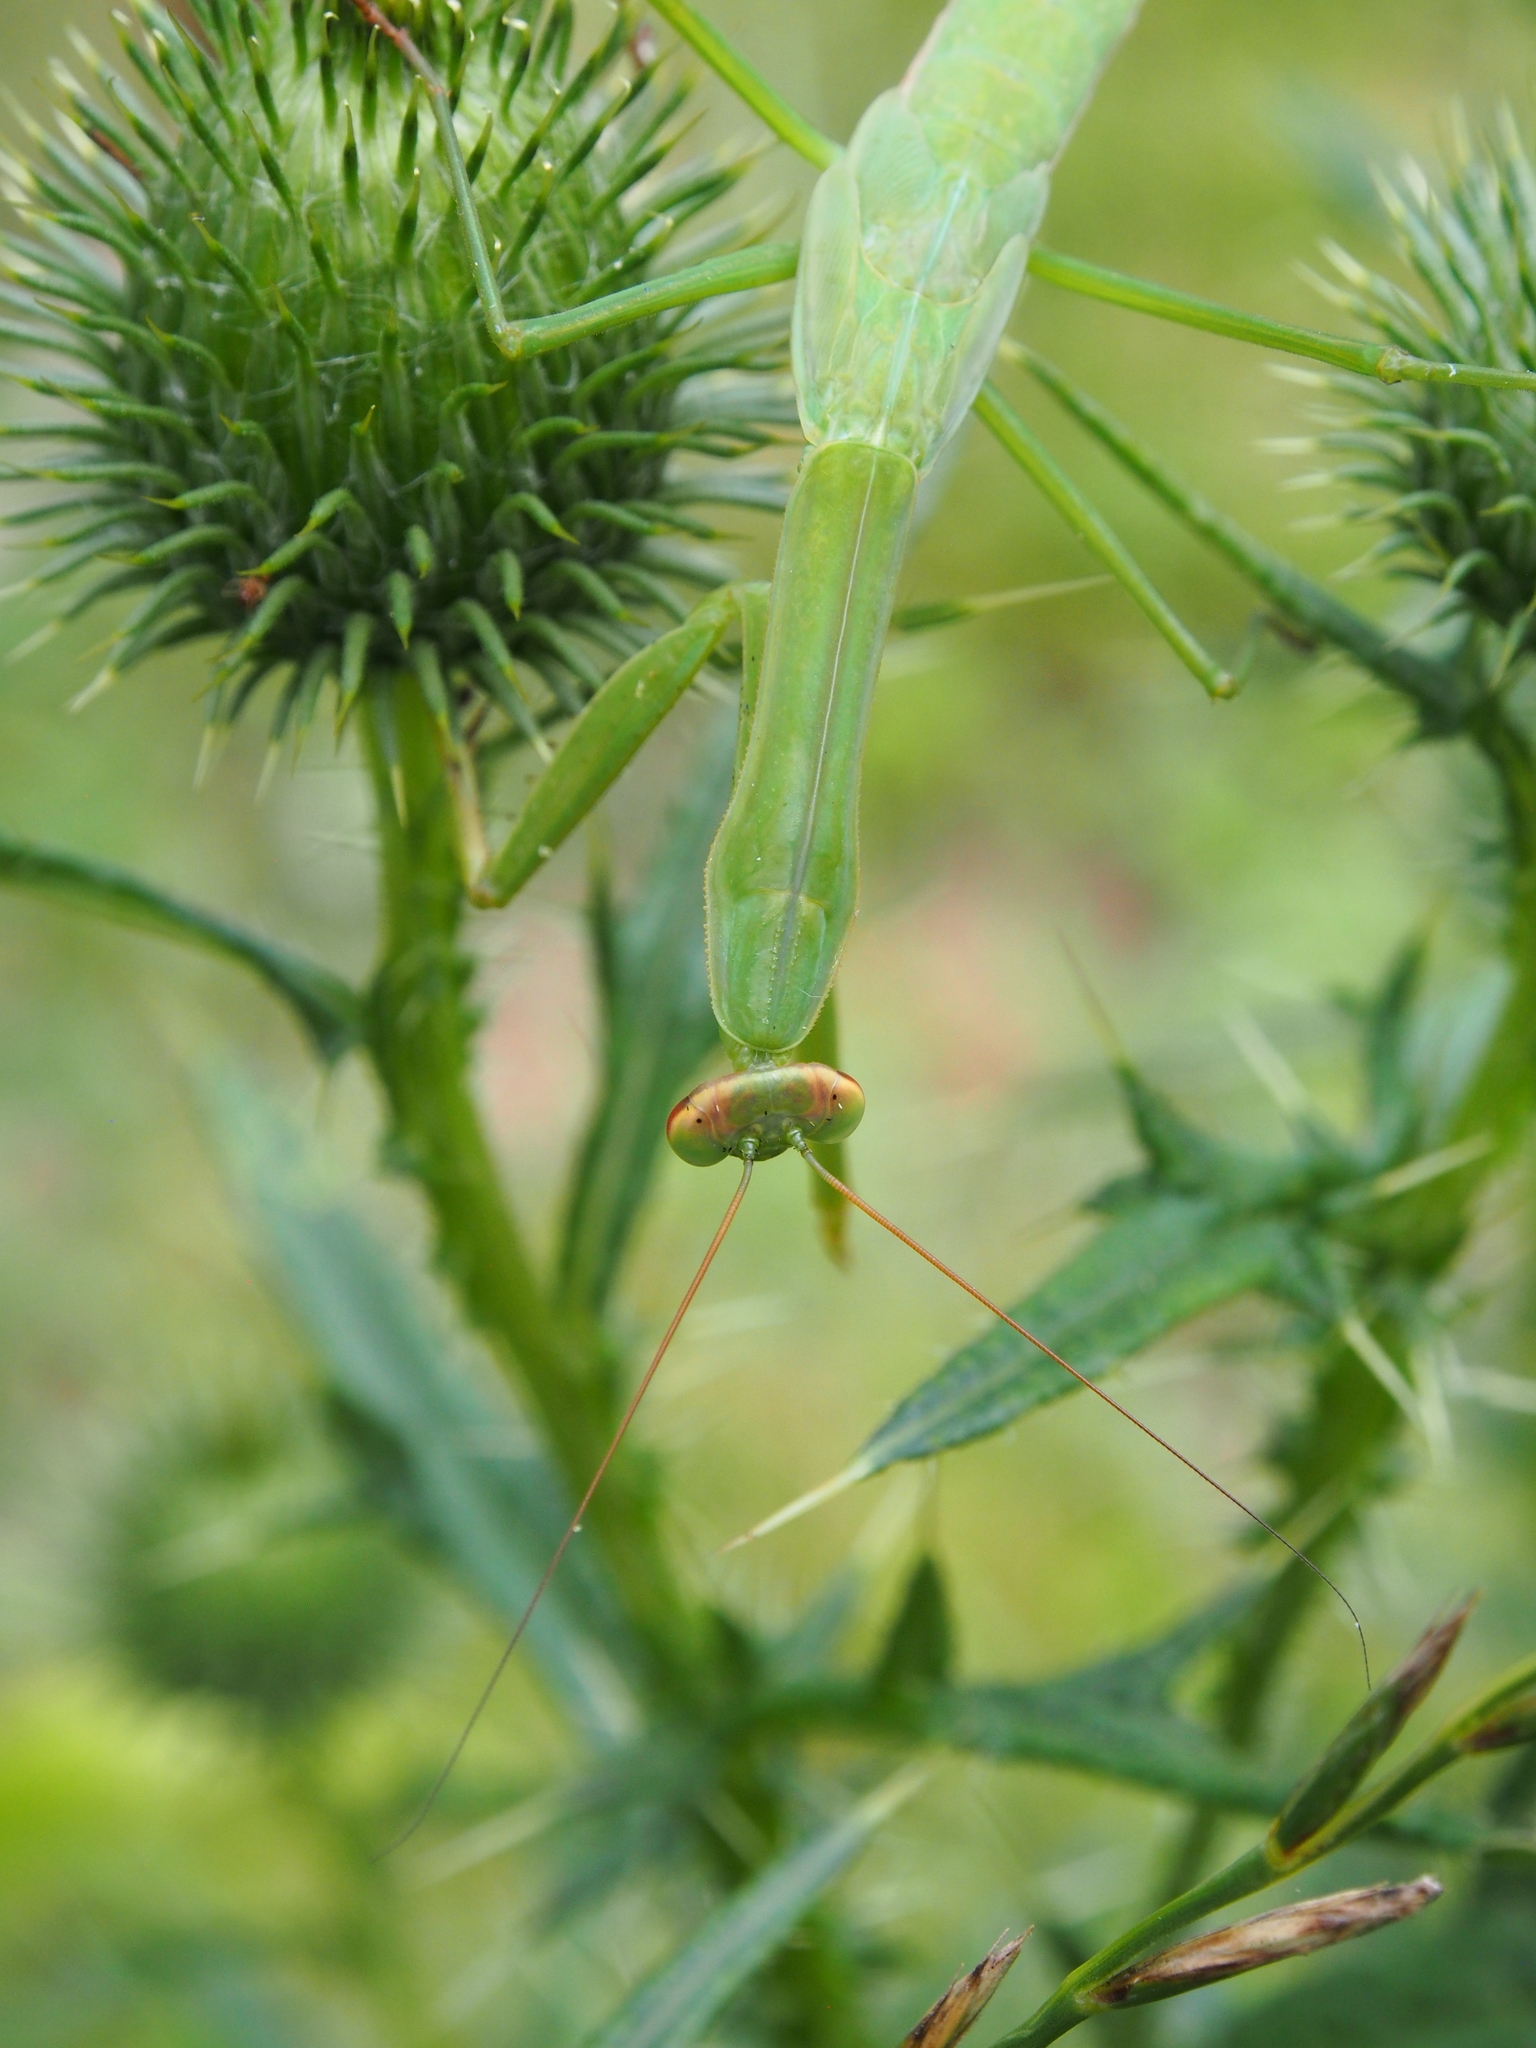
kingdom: Animalia
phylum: Arthropoda
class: Insecta
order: Mantodea
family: Mantidae
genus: Tenodera
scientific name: Tenodera sinensis
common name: Chinese mantis
